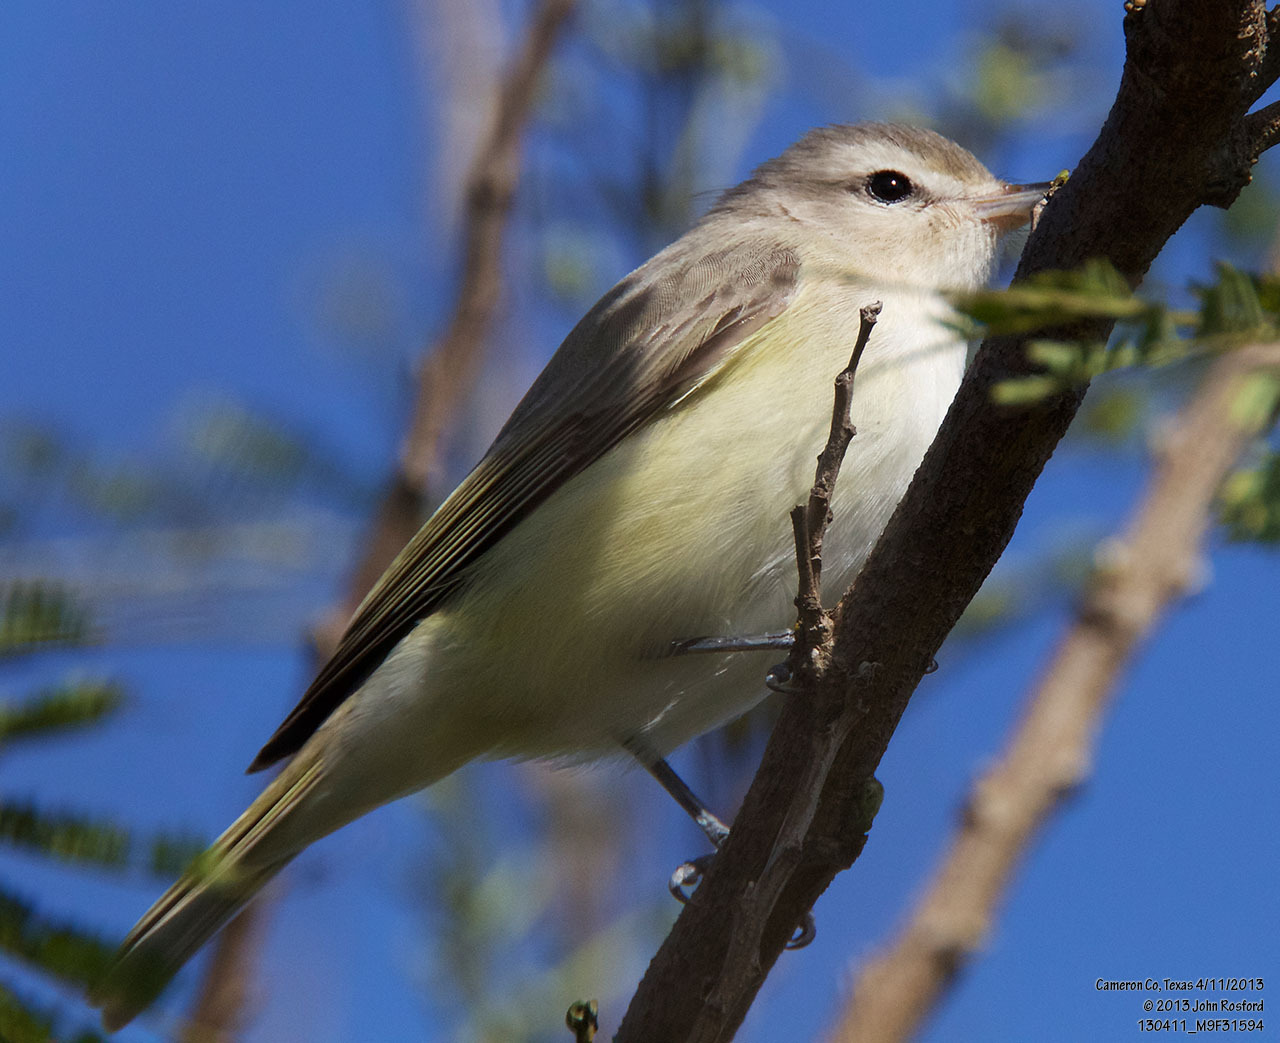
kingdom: Animalia
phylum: Chordata
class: Aves
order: Passeriformes
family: Vireonidae
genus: Vireo
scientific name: Vireo gilvus
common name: Warbling vireo
